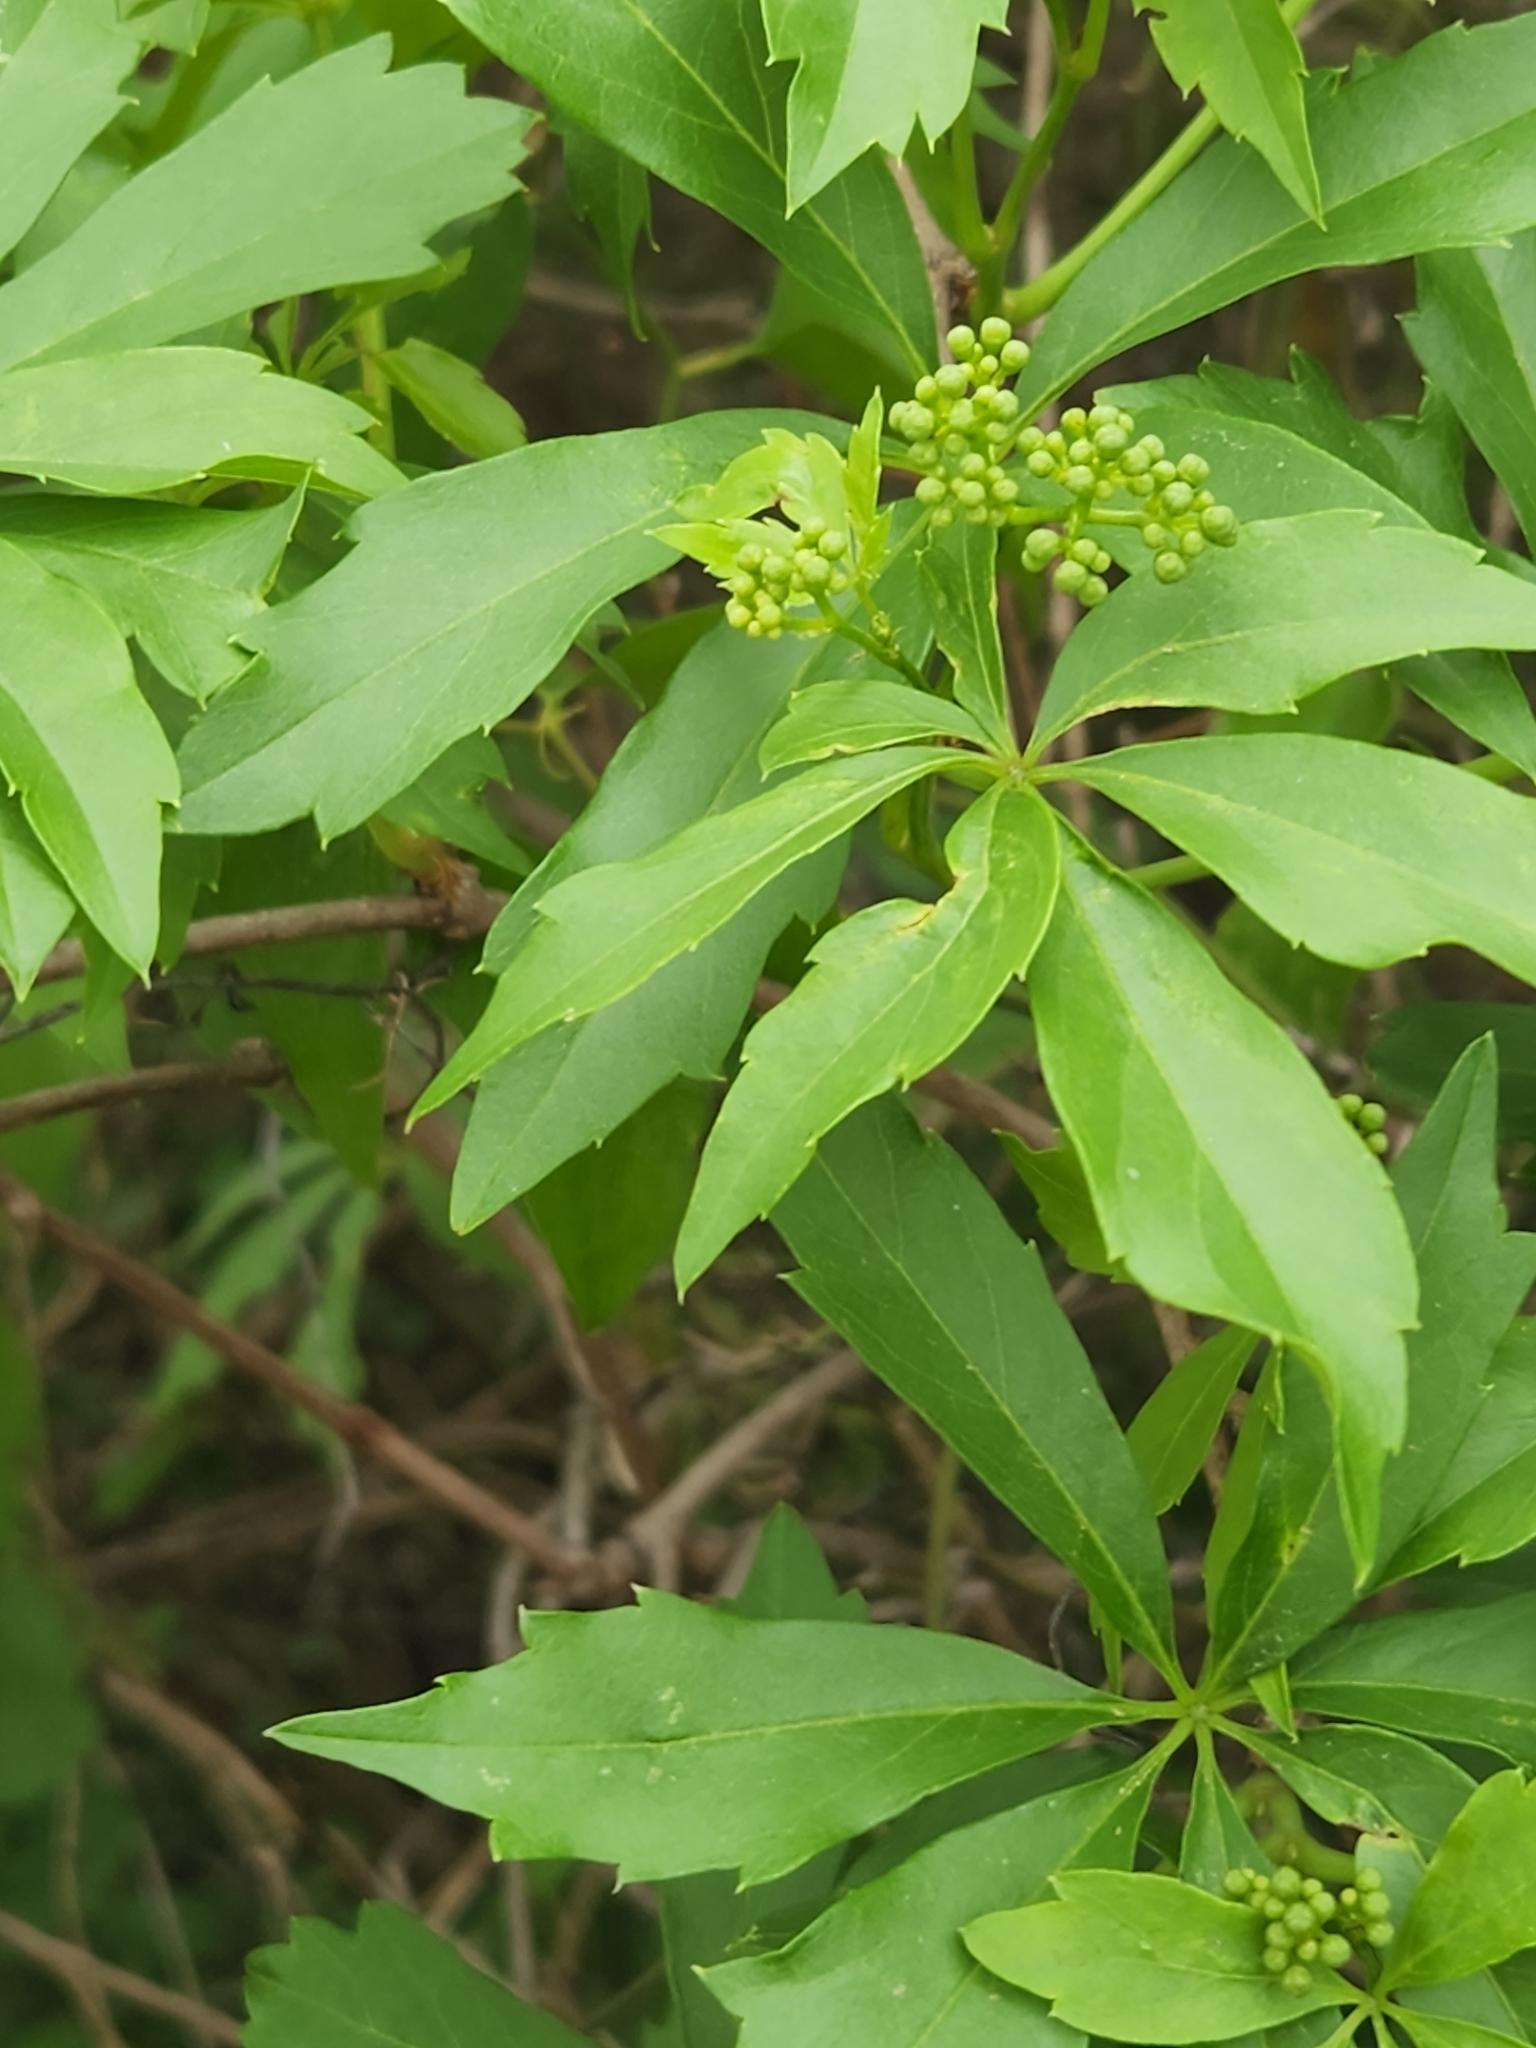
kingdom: Plantae
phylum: Tracheophyta
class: Magnoliopsida
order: Vitales
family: Vitaceae
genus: Parthenocissus
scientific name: Parthenocissus heptaphylla
